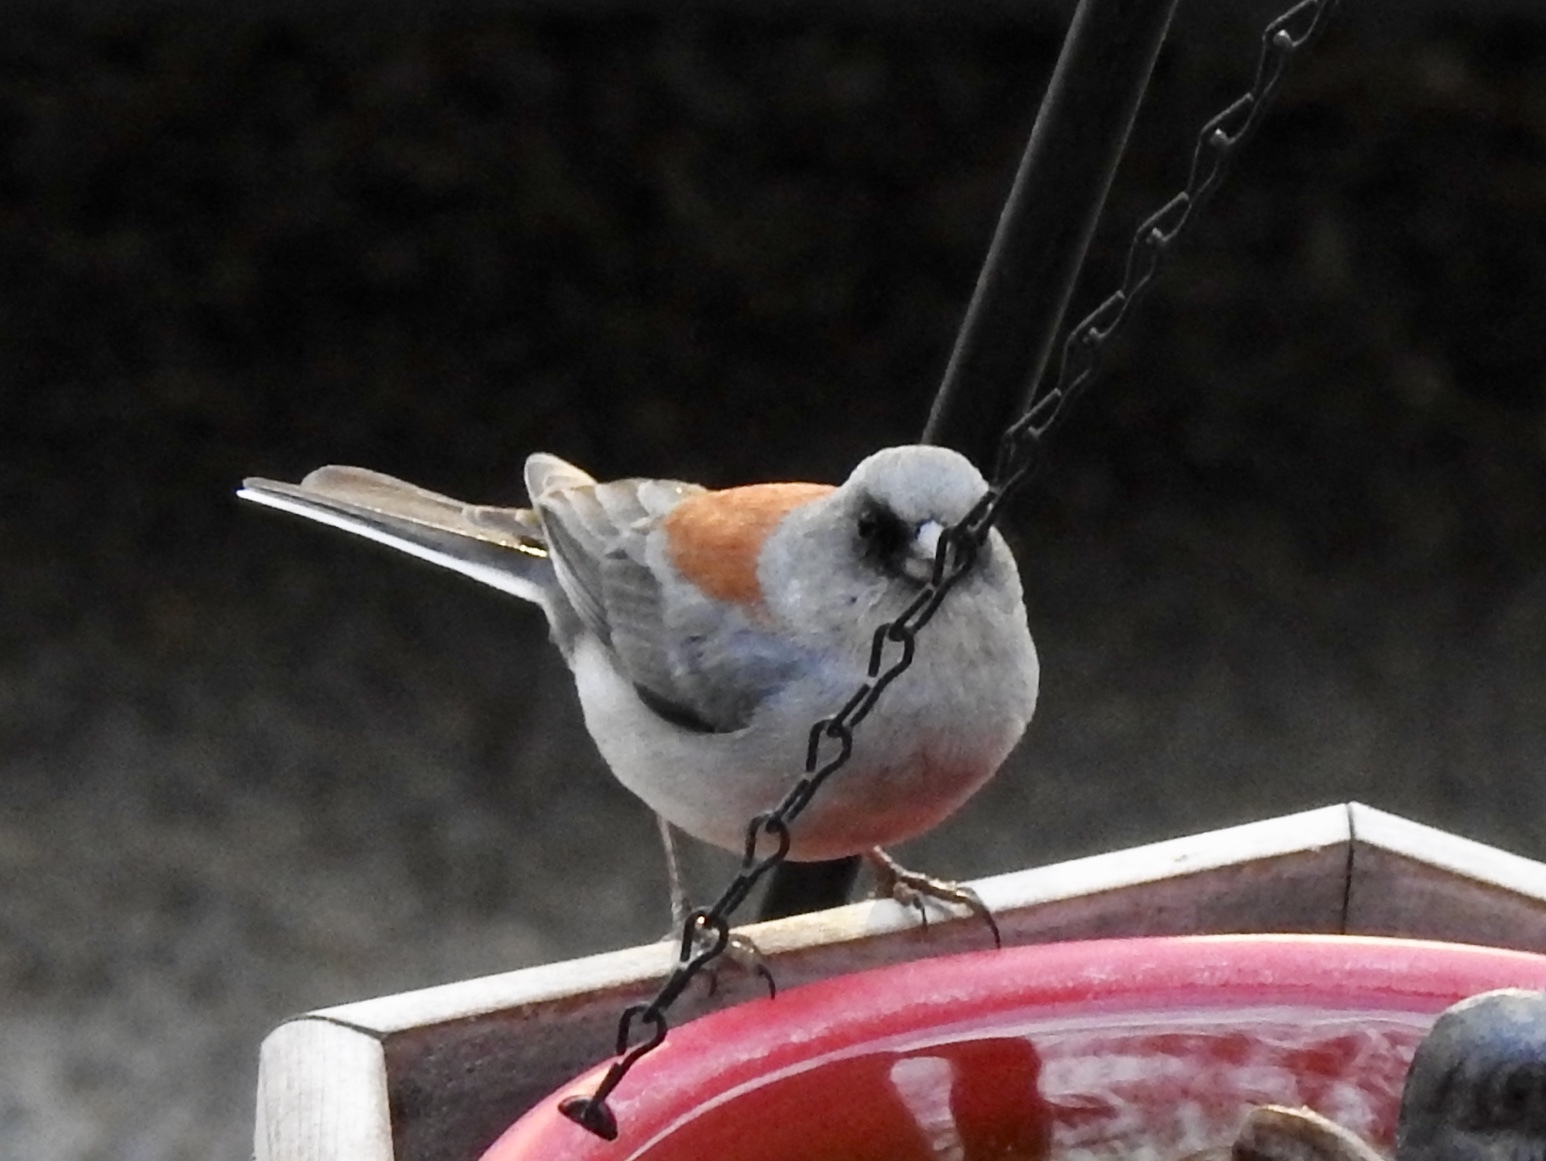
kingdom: Animalia
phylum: Chordata
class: Aves
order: Passeriformes
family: Passerellidae
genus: Junco
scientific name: Junco hyemalis
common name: Dark-eyed junco
